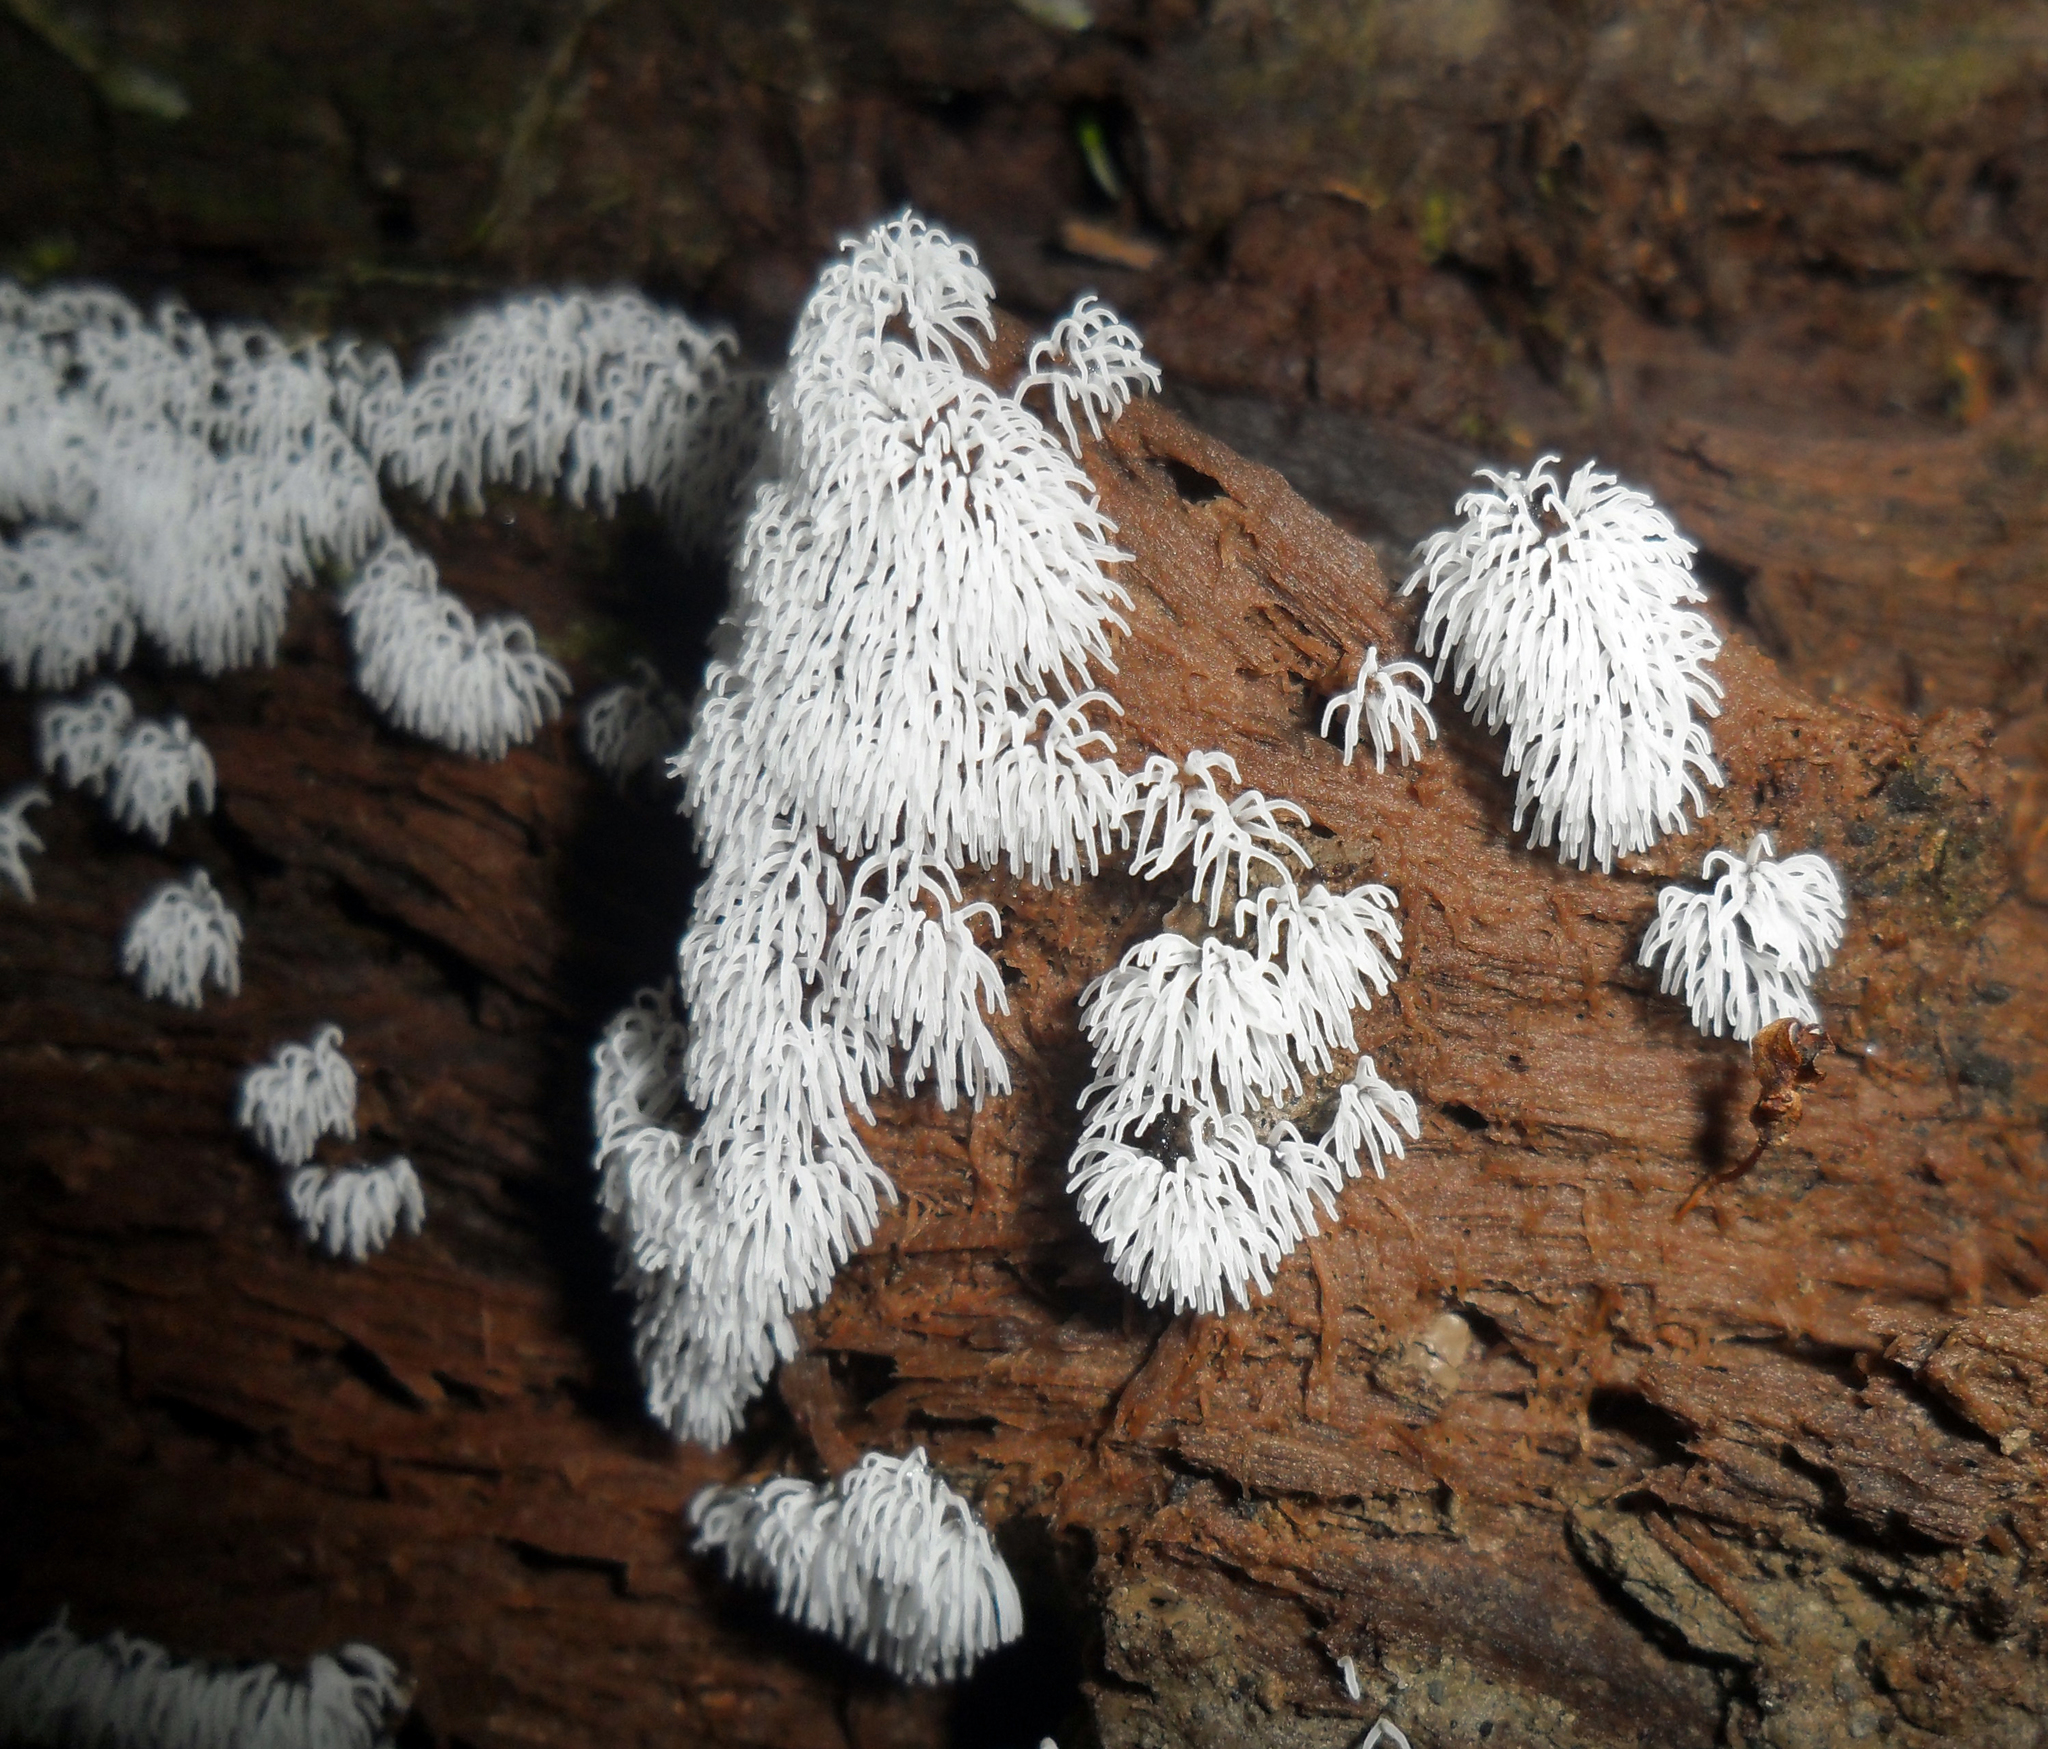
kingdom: Protozoa
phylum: Mycetozoa
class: Protosteliomycetes
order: Ceratiomyxales
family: Ceratiomyxaceae
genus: Ceratiomyxa
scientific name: Ceratiomyxa fruticulosa
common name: Honeycomb coral slime mold
